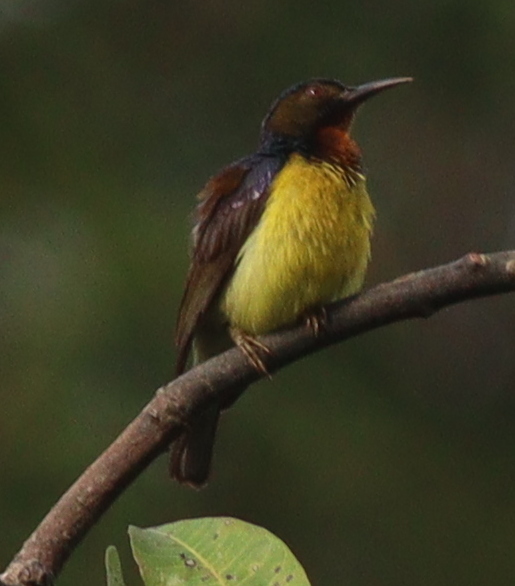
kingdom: Animalia
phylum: Chordata
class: Aves
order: Passeriformes
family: Nectariniidae
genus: Anthreptes
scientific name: Anthreptes malacensis
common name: Brown-throated sunbird
